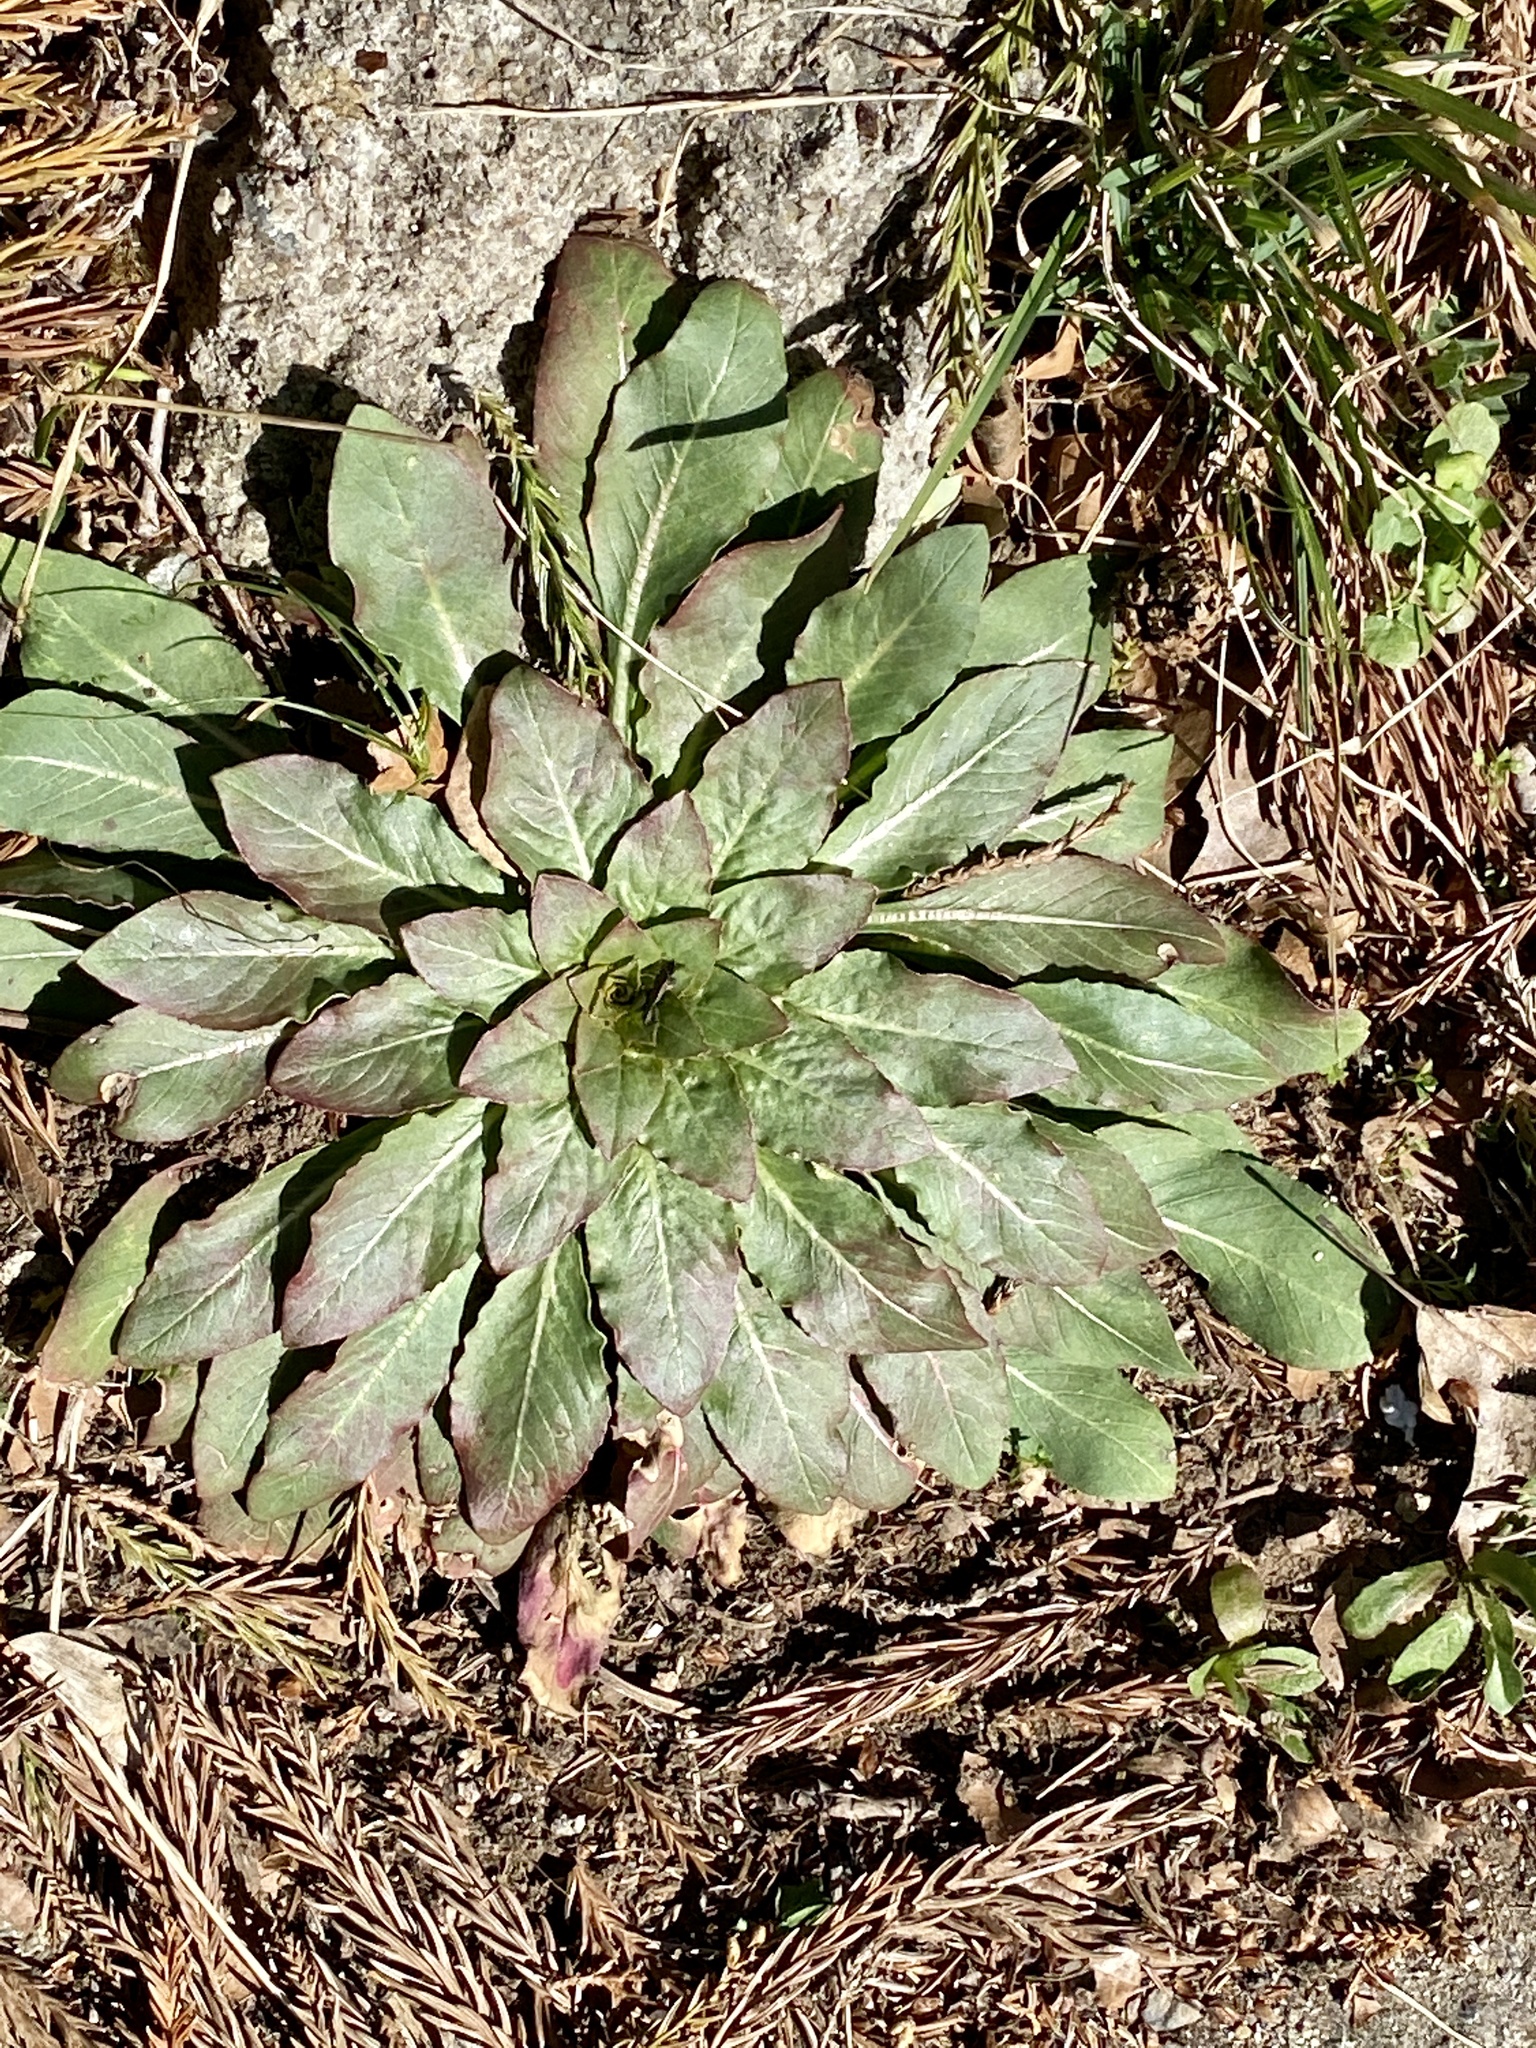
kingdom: Plantae
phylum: Tracheophyta
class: Magnoliopsida
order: Myrtales
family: Onagraceae
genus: Oenothera
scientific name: Oenothera biennis
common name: Common evening-primrose
